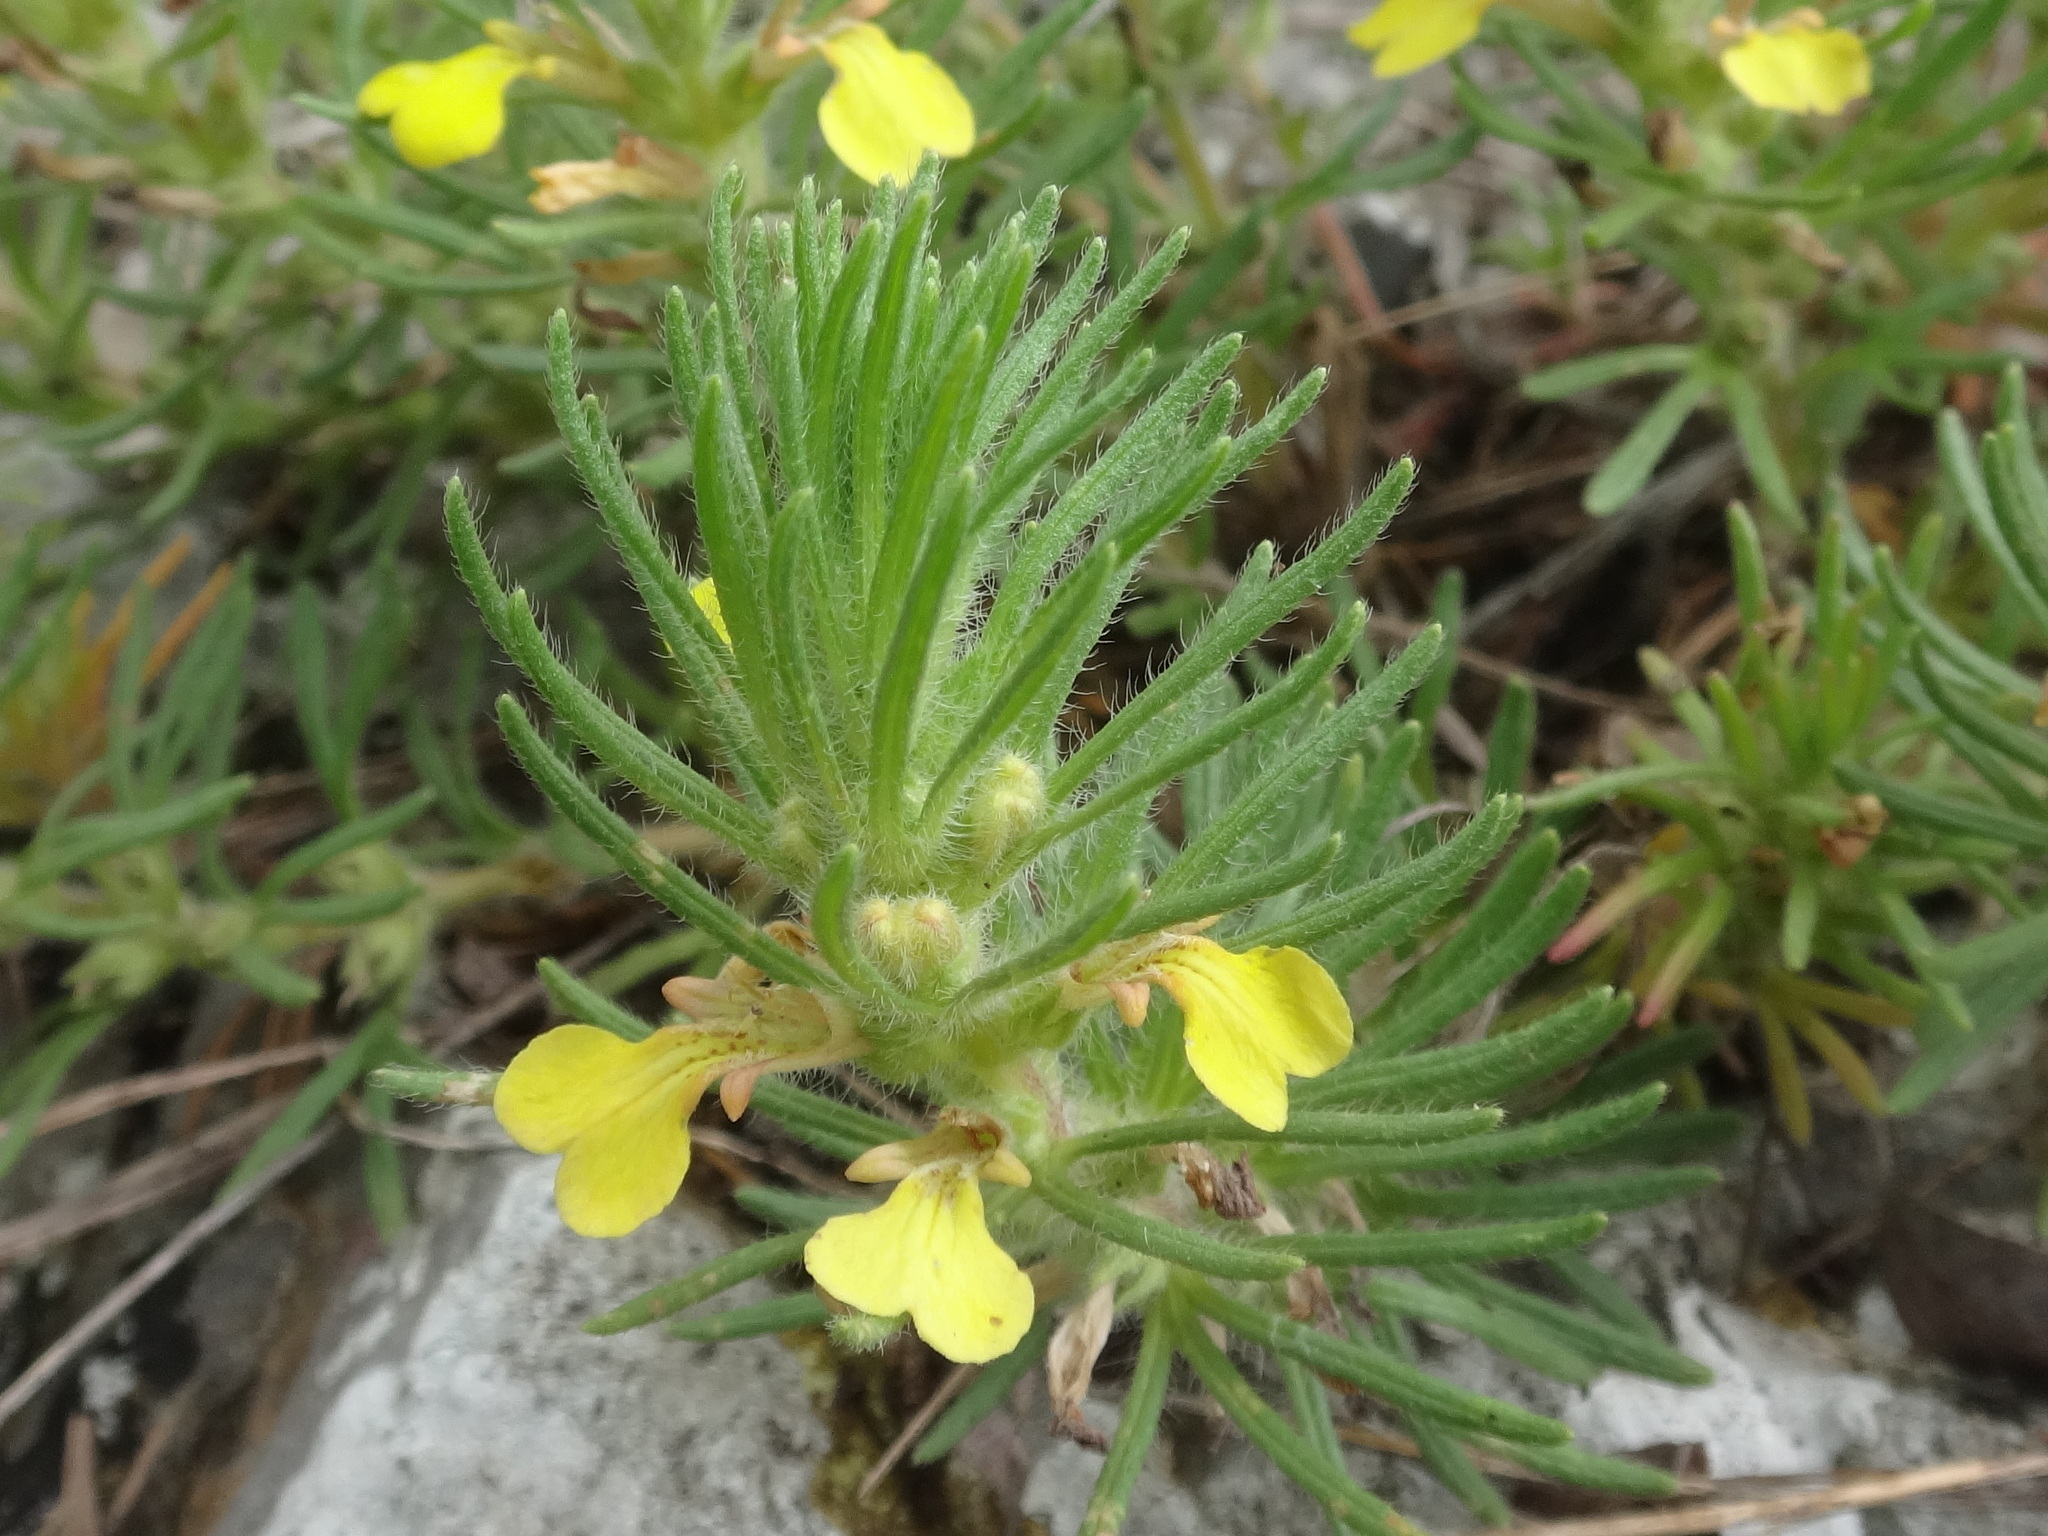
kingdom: Plantae
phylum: Tracheophyta
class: Magnoliopsida
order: Lamiales
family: Lamiaceae
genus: Ajuga
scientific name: Ajuga chamaepitys
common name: Ground-pine
